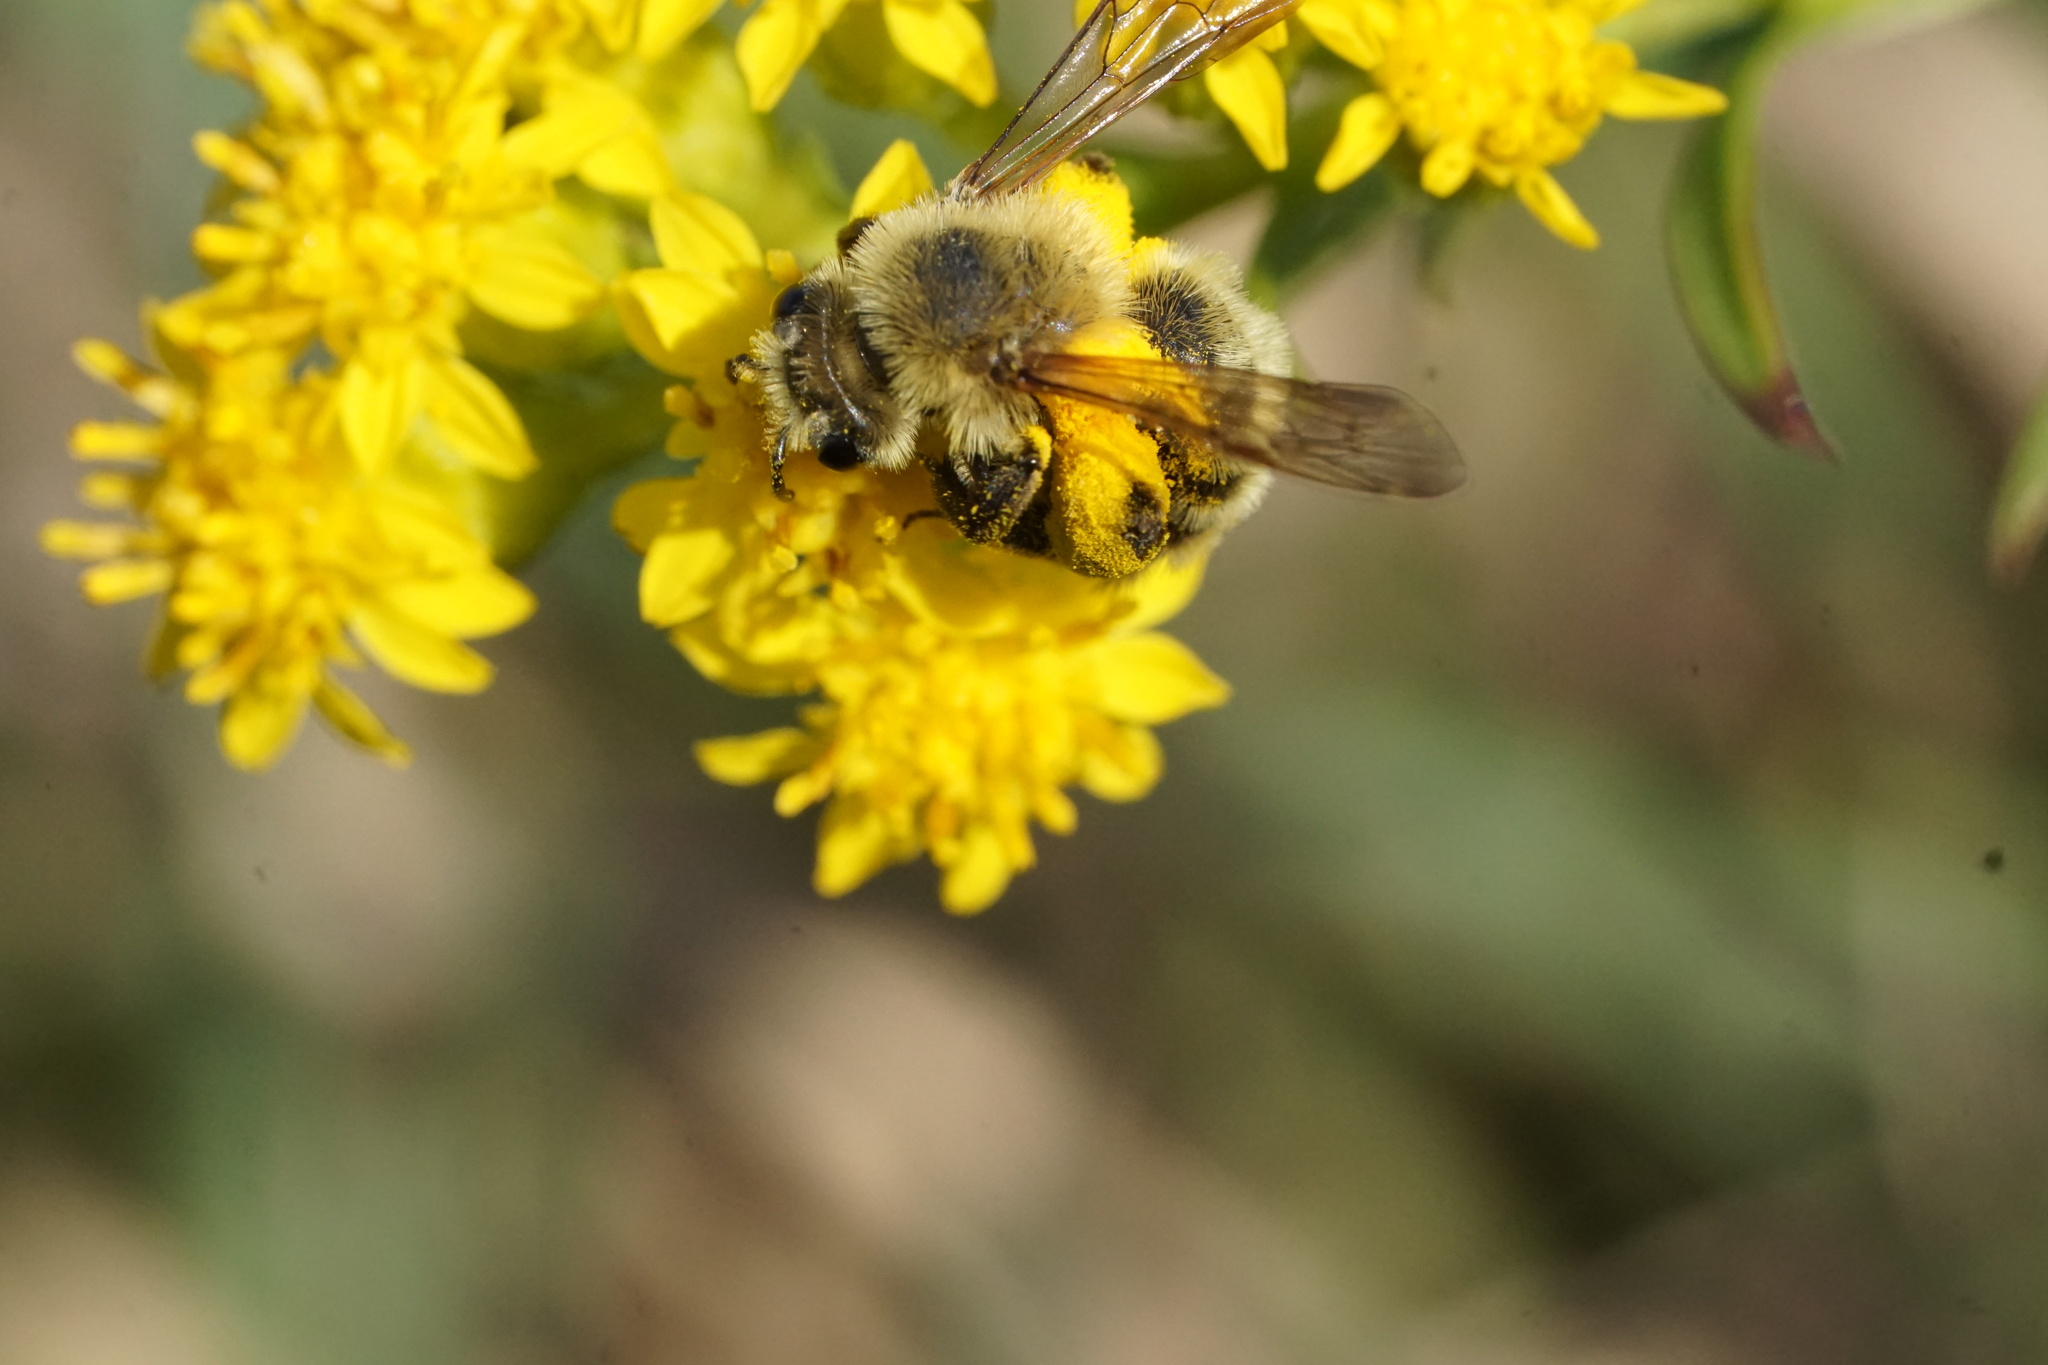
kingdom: Animalia
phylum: Arthropoda
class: Insecta
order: Hymenoptera
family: Andrenidae
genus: Andrena
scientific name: Andrena hirticincta
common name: Hairy-banded mining bee
